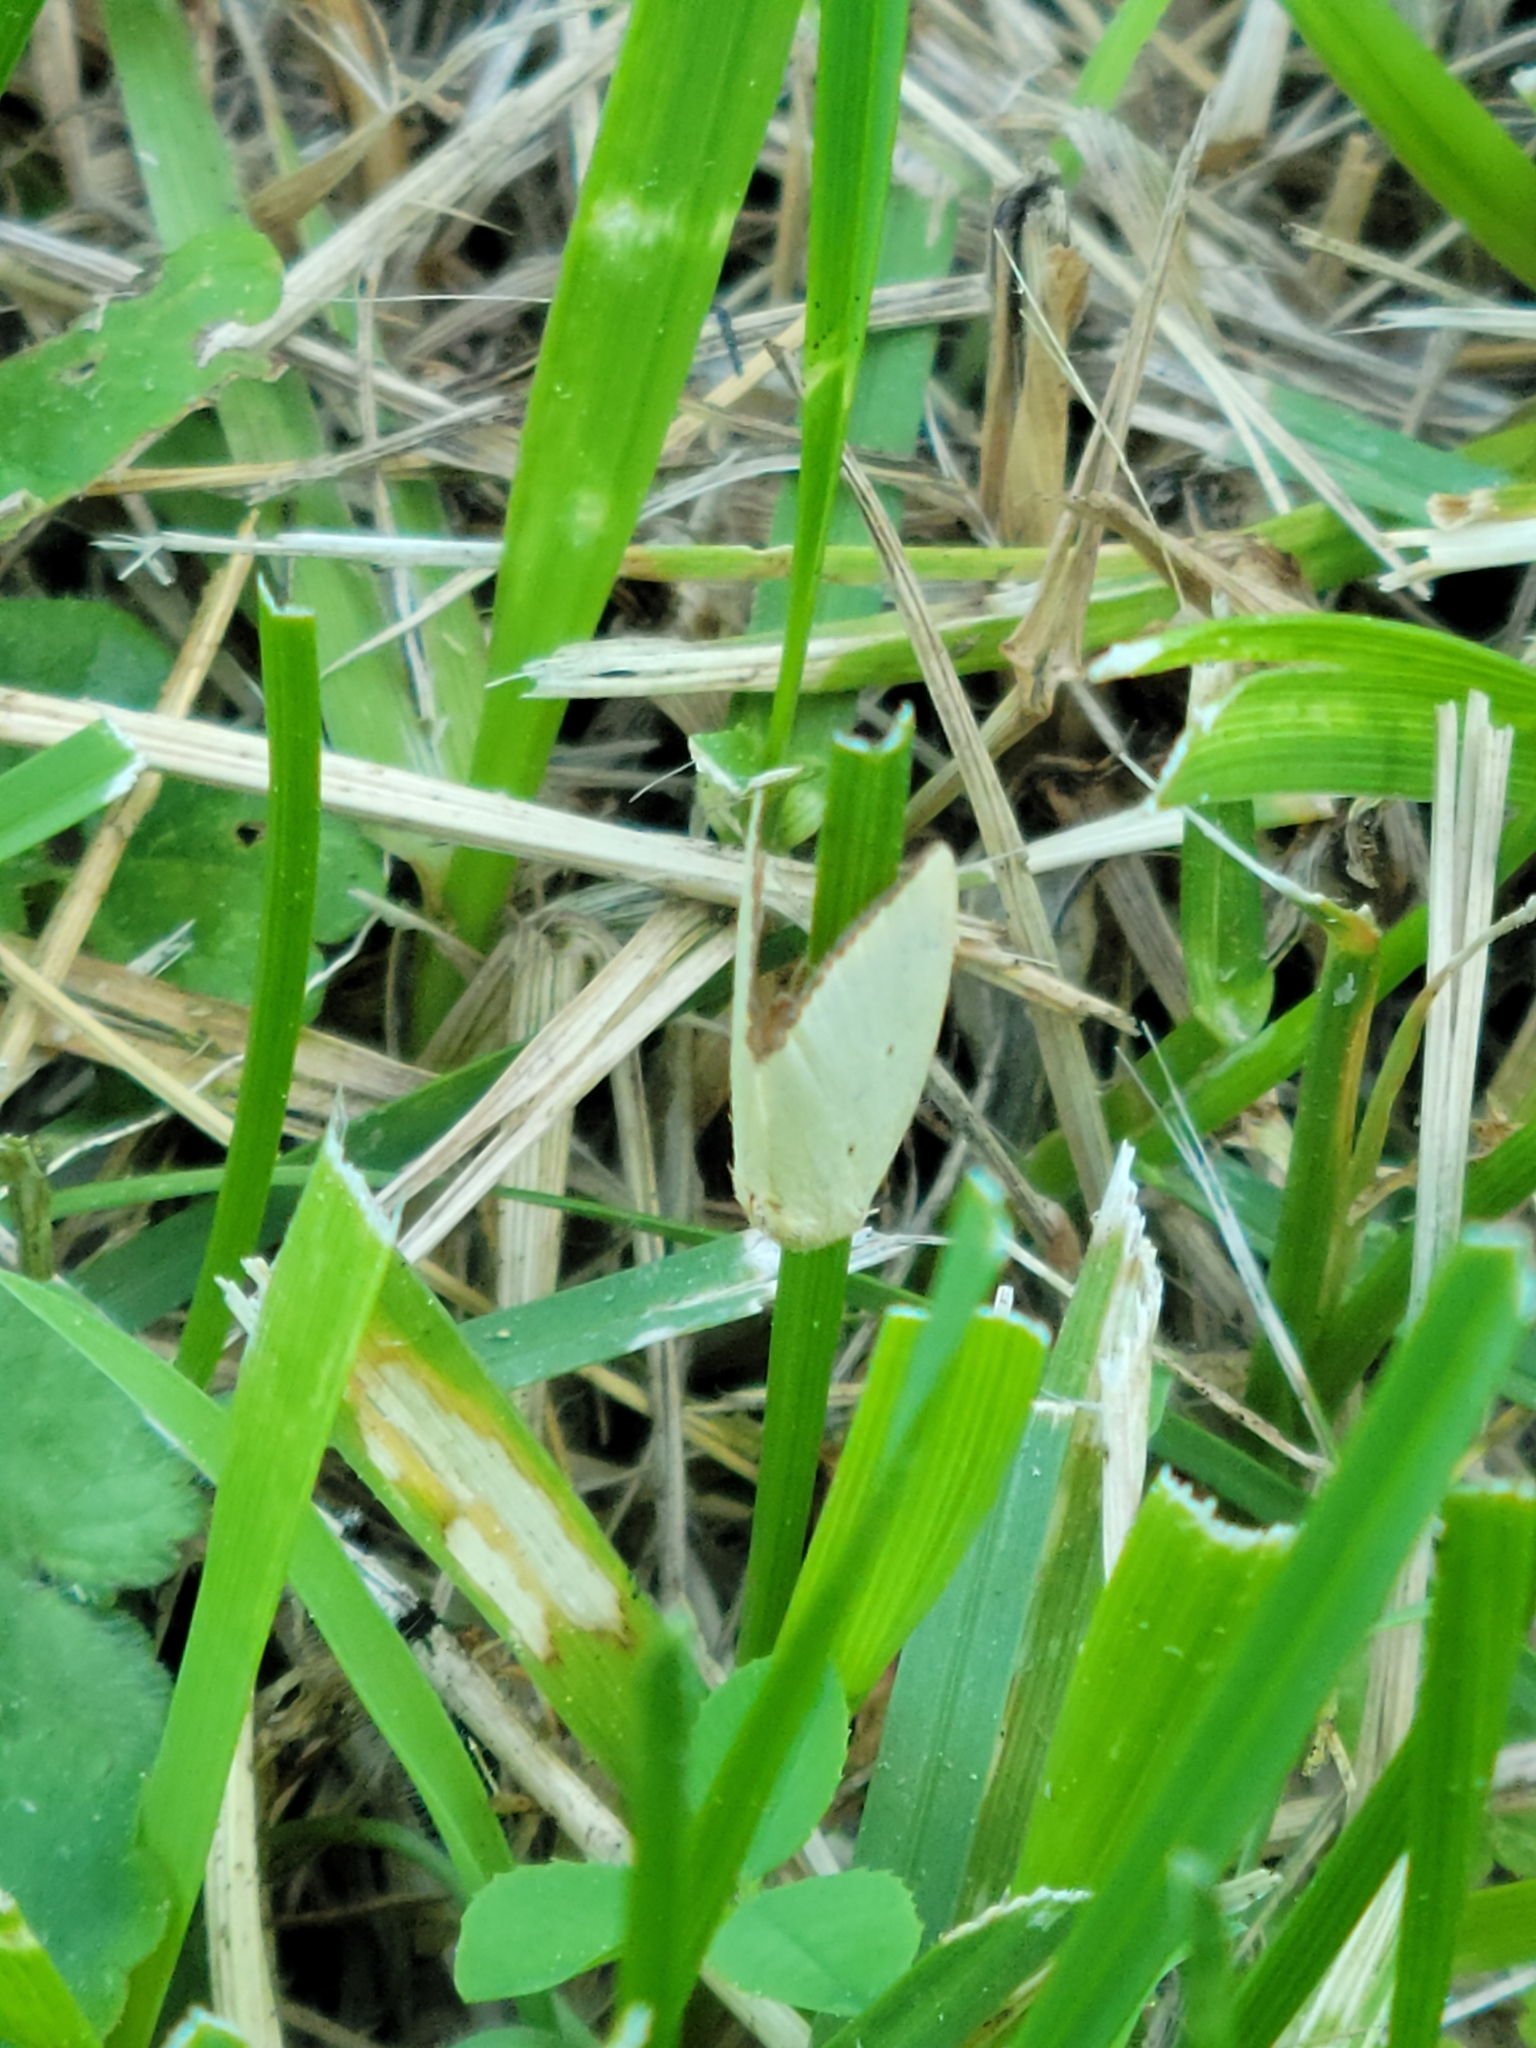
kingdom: Animalia
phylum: Arthropoda
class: Insecta
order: Lepidoptera
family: Noctuidae
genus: Marimatha
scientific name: Marimatha nigrofimbria
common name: Black-bordered lemon moth
